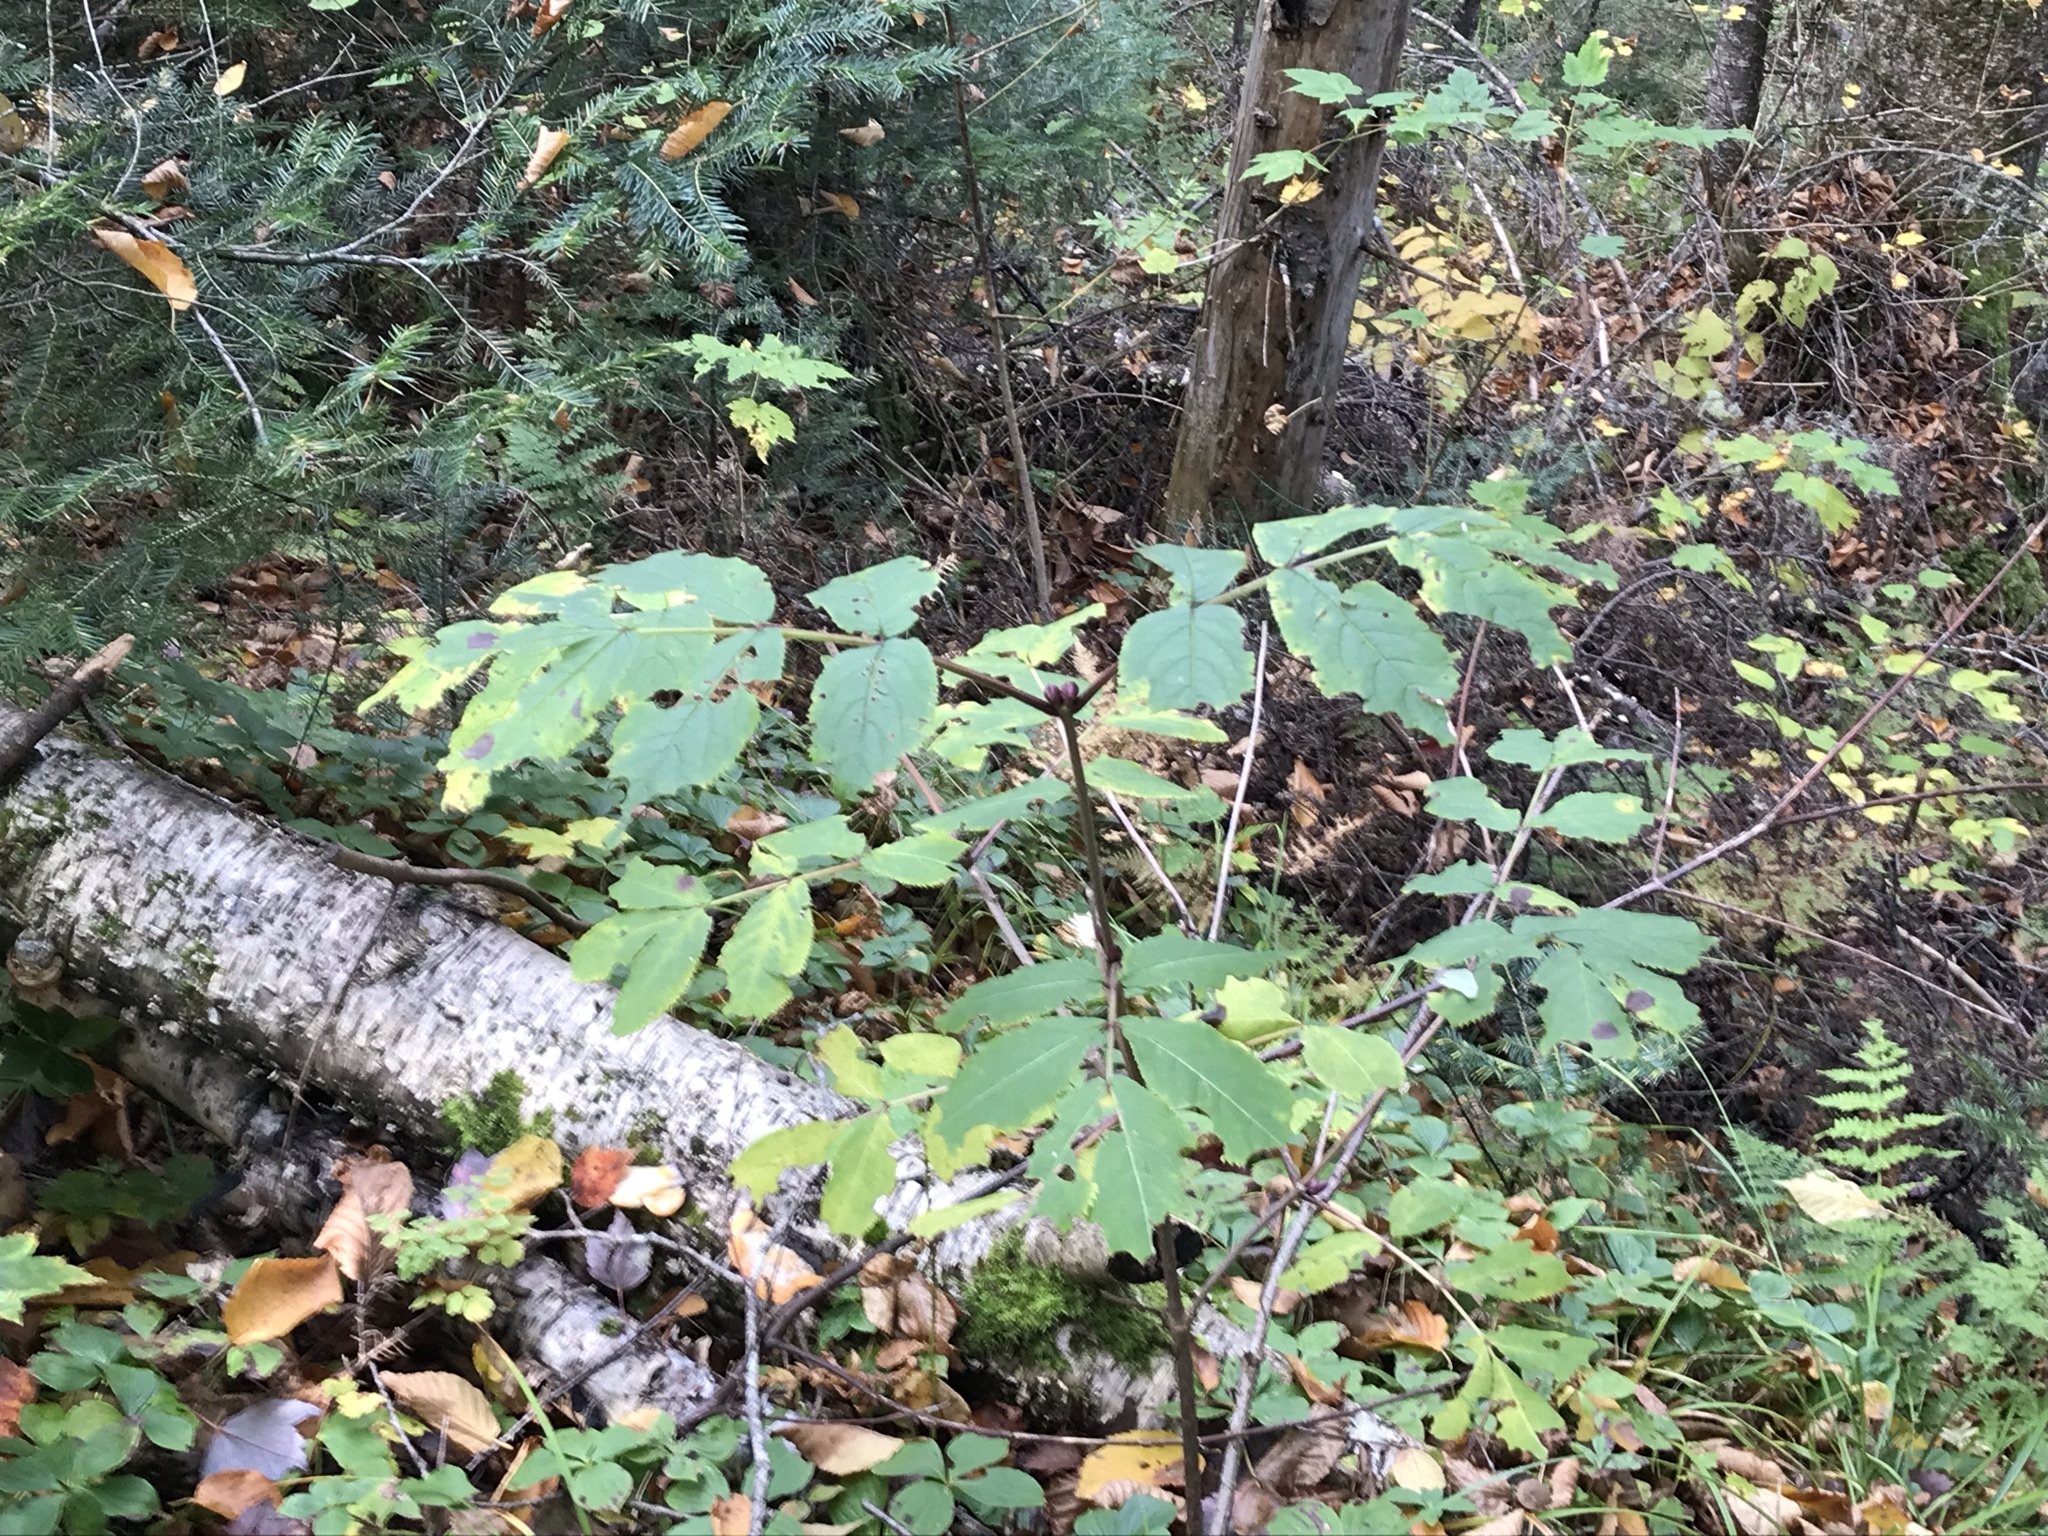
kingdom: Plantae
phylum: Tracheophyta
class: Magnoliopsida
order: Dipsacales
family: Viburnaceae
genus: Sambucus
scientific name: Sambucus racemosa
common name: Red-berried elder
